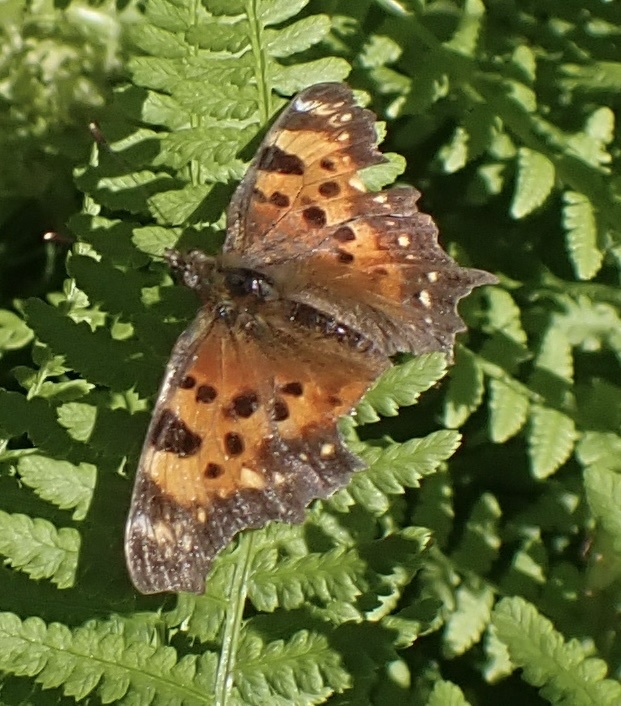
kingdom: Animalia
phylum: Arthropoda
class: Insecta
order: Lepidoptera
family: Nymphalidae
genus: Polygonia
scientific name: Polygonia faunus
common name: Green comma
